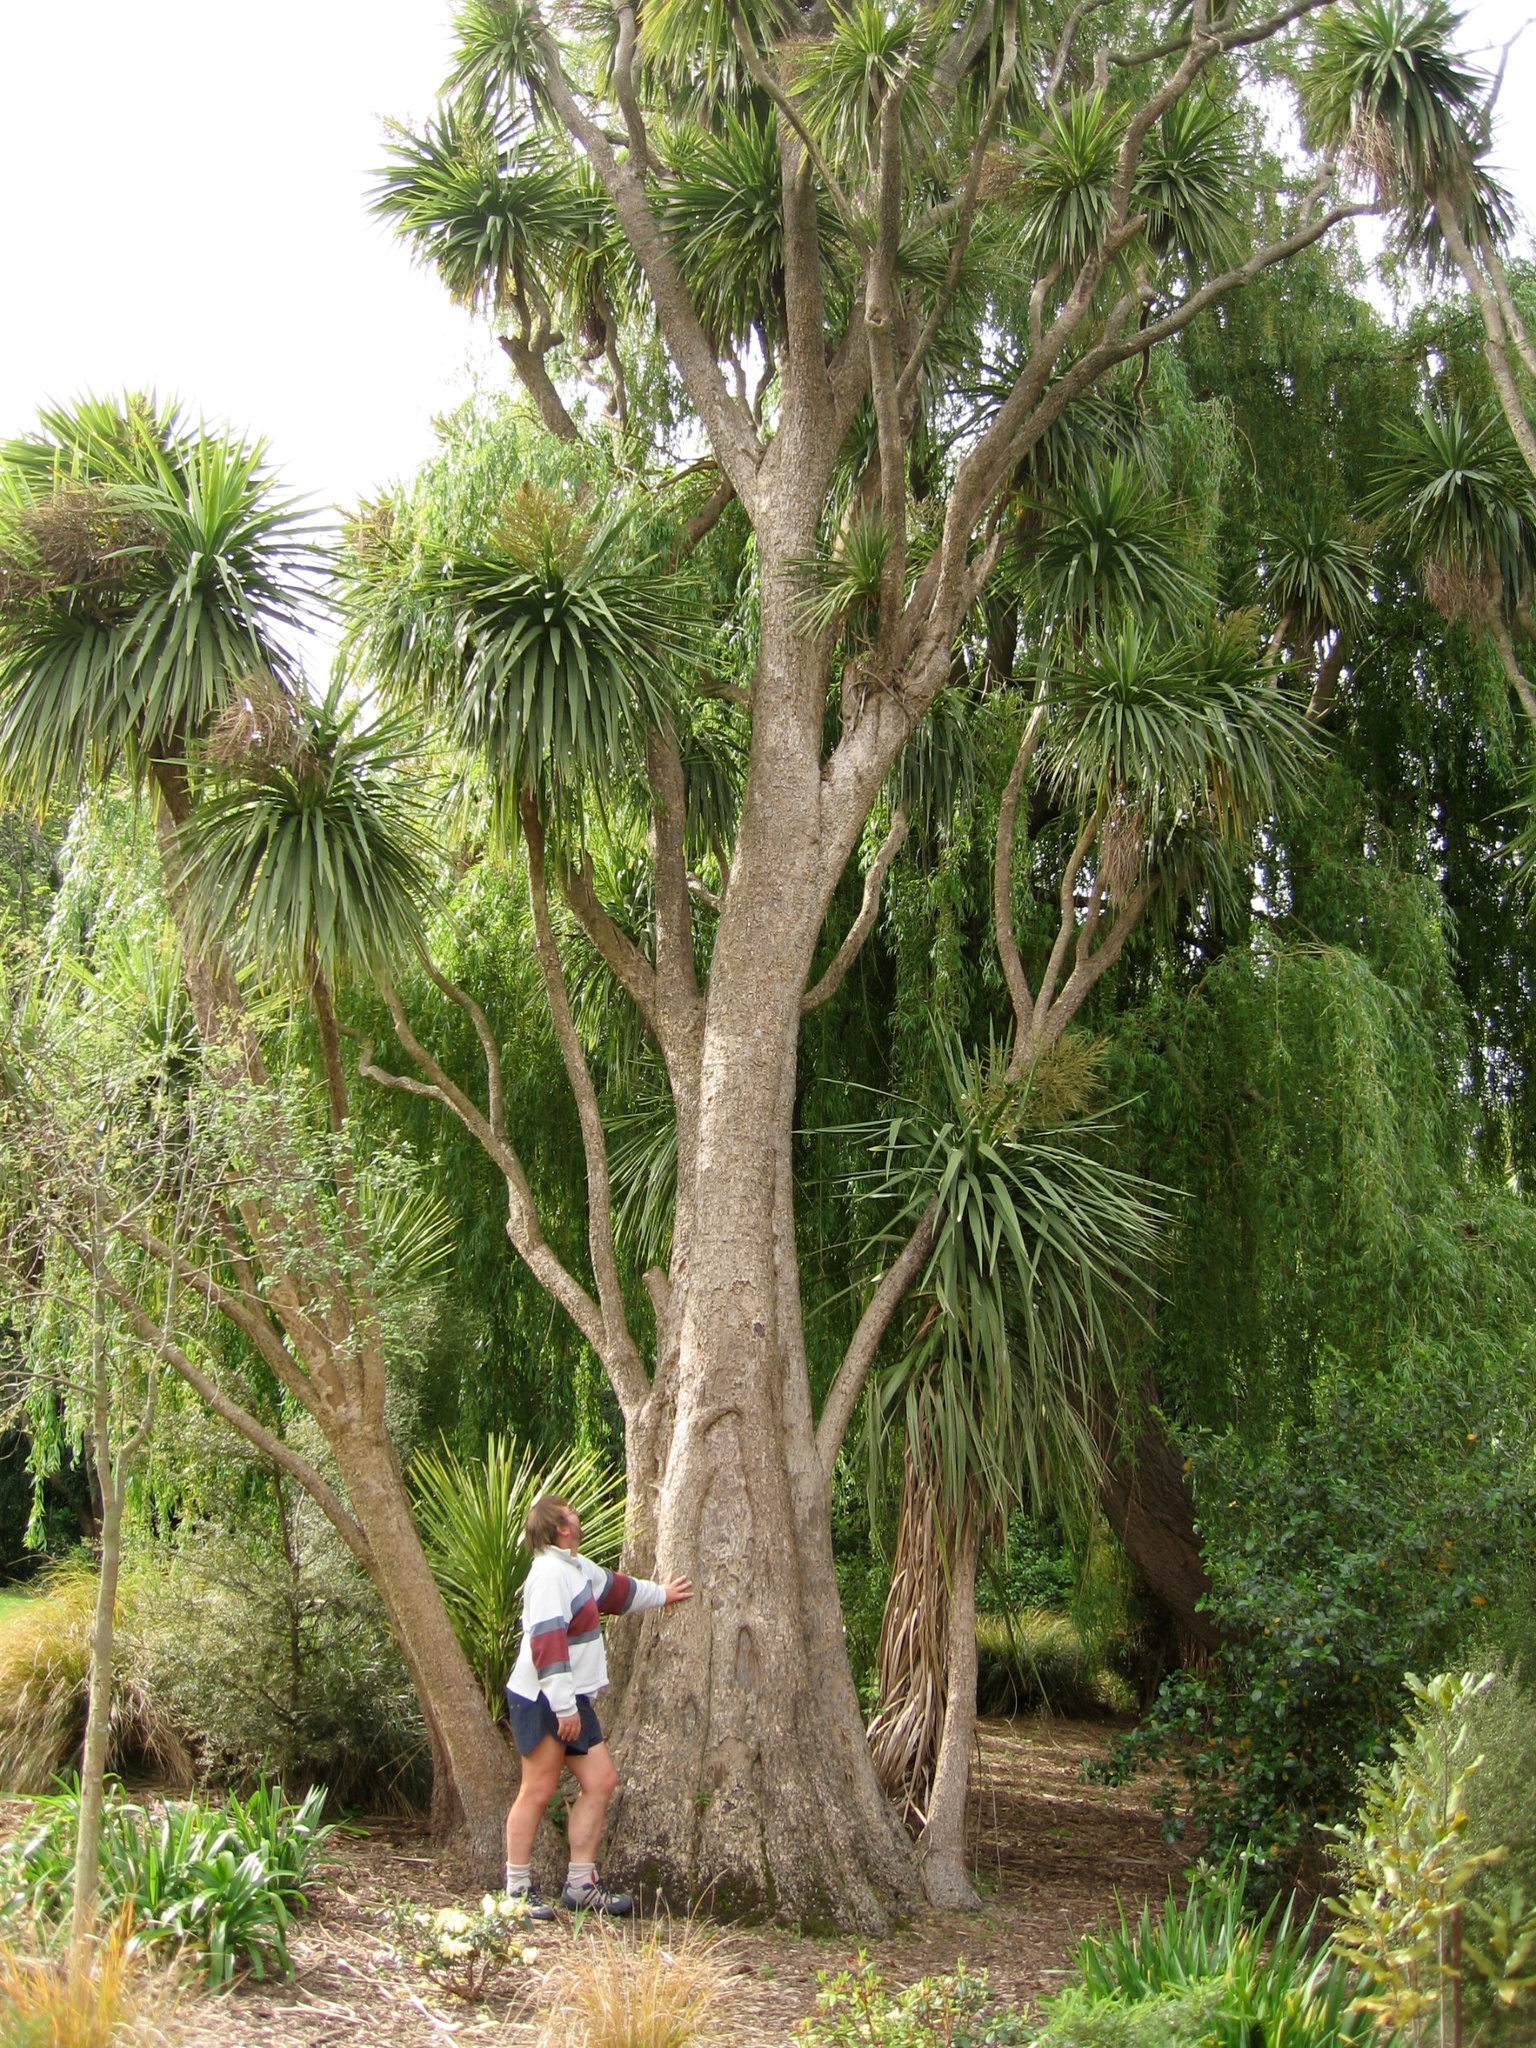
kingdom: Plantae
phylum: Tracheophyta
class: Liliopsida
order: Asparagales
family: Asparagaceae
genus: Cordyline
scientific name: Cordyline australis
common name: Cabbage-palm
